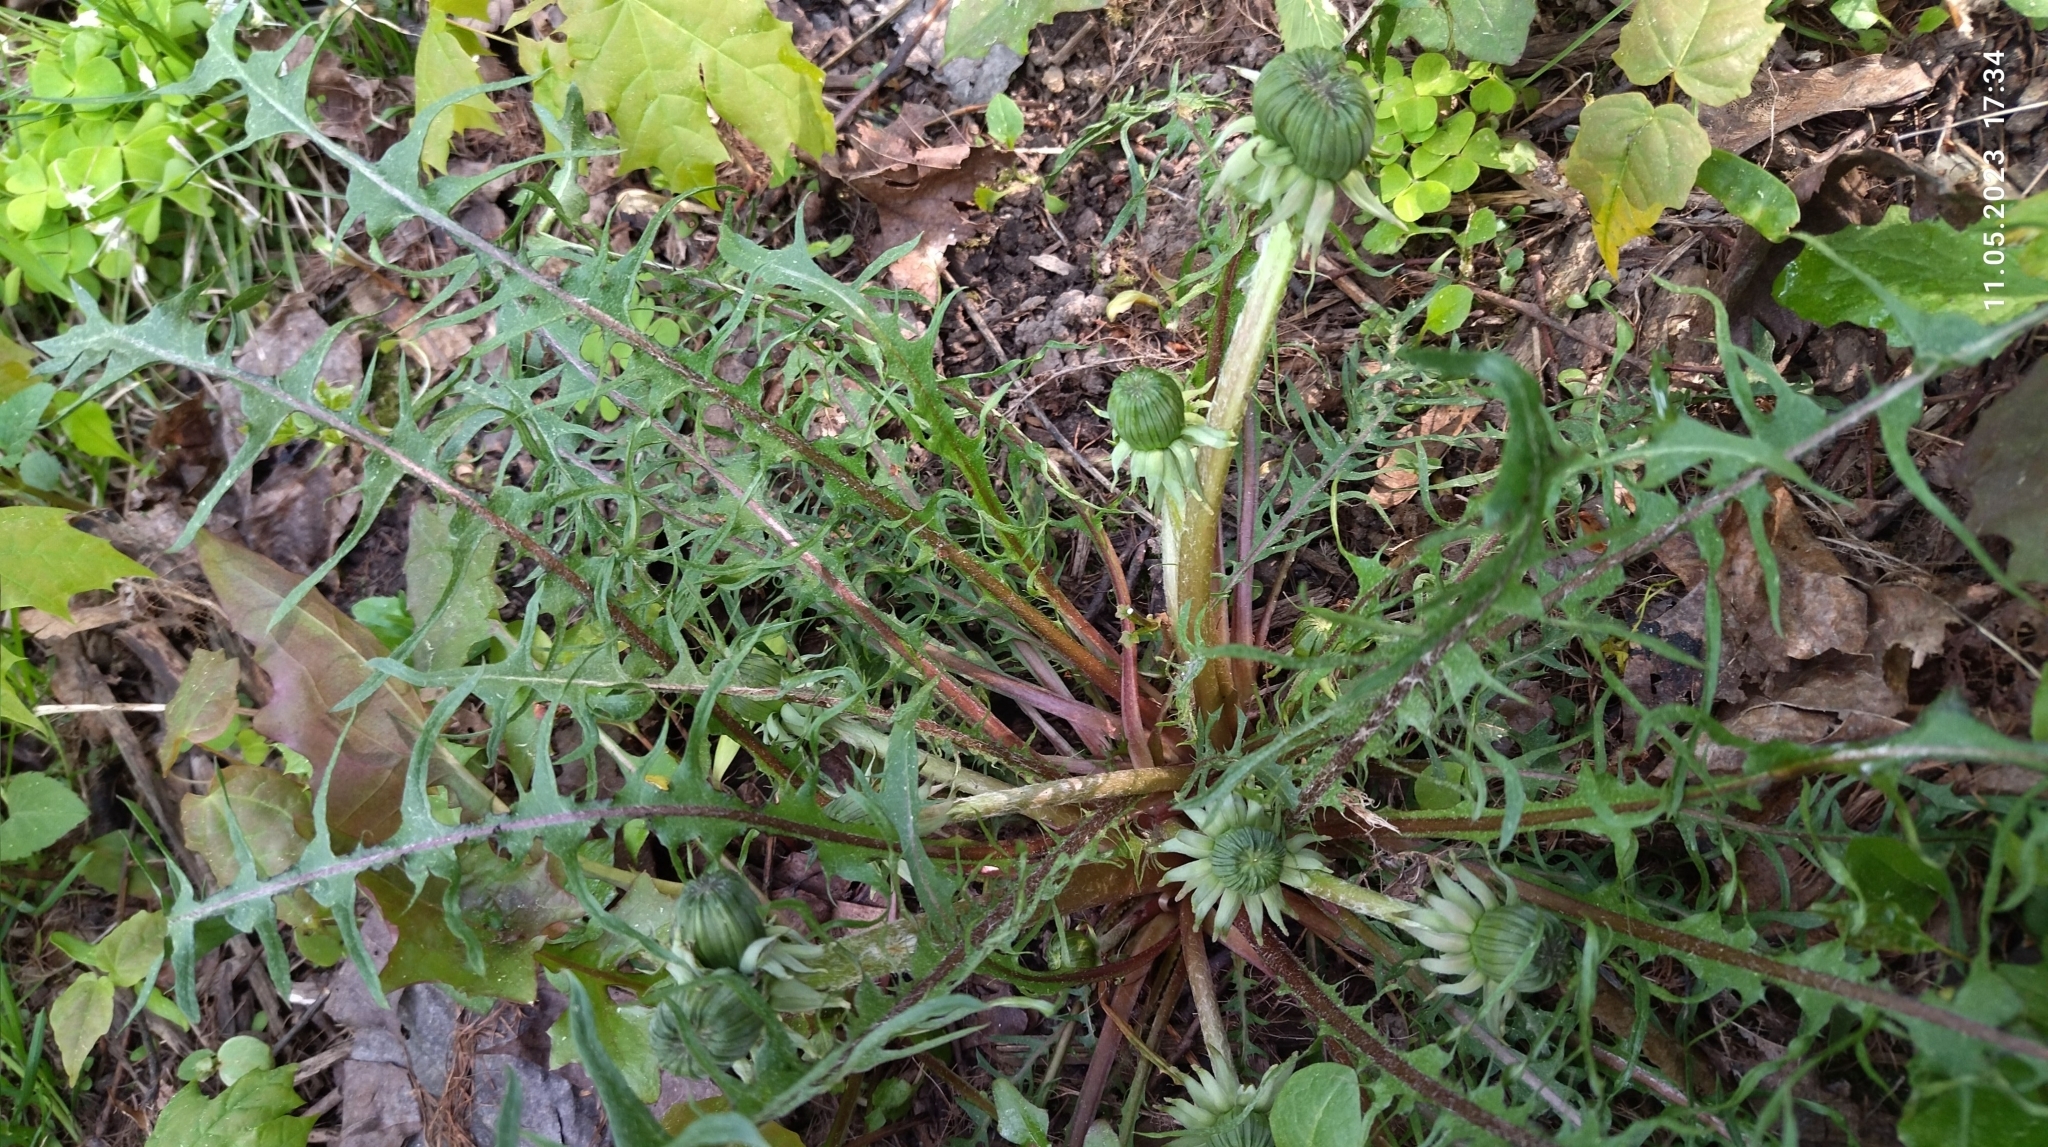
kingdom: Plantae
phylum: Tracheophyta
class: Magnoliopsida
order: Asterales
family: Asteraceae
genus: Taraxacum
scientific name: Taraxacum officinale
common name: Common dandelion
